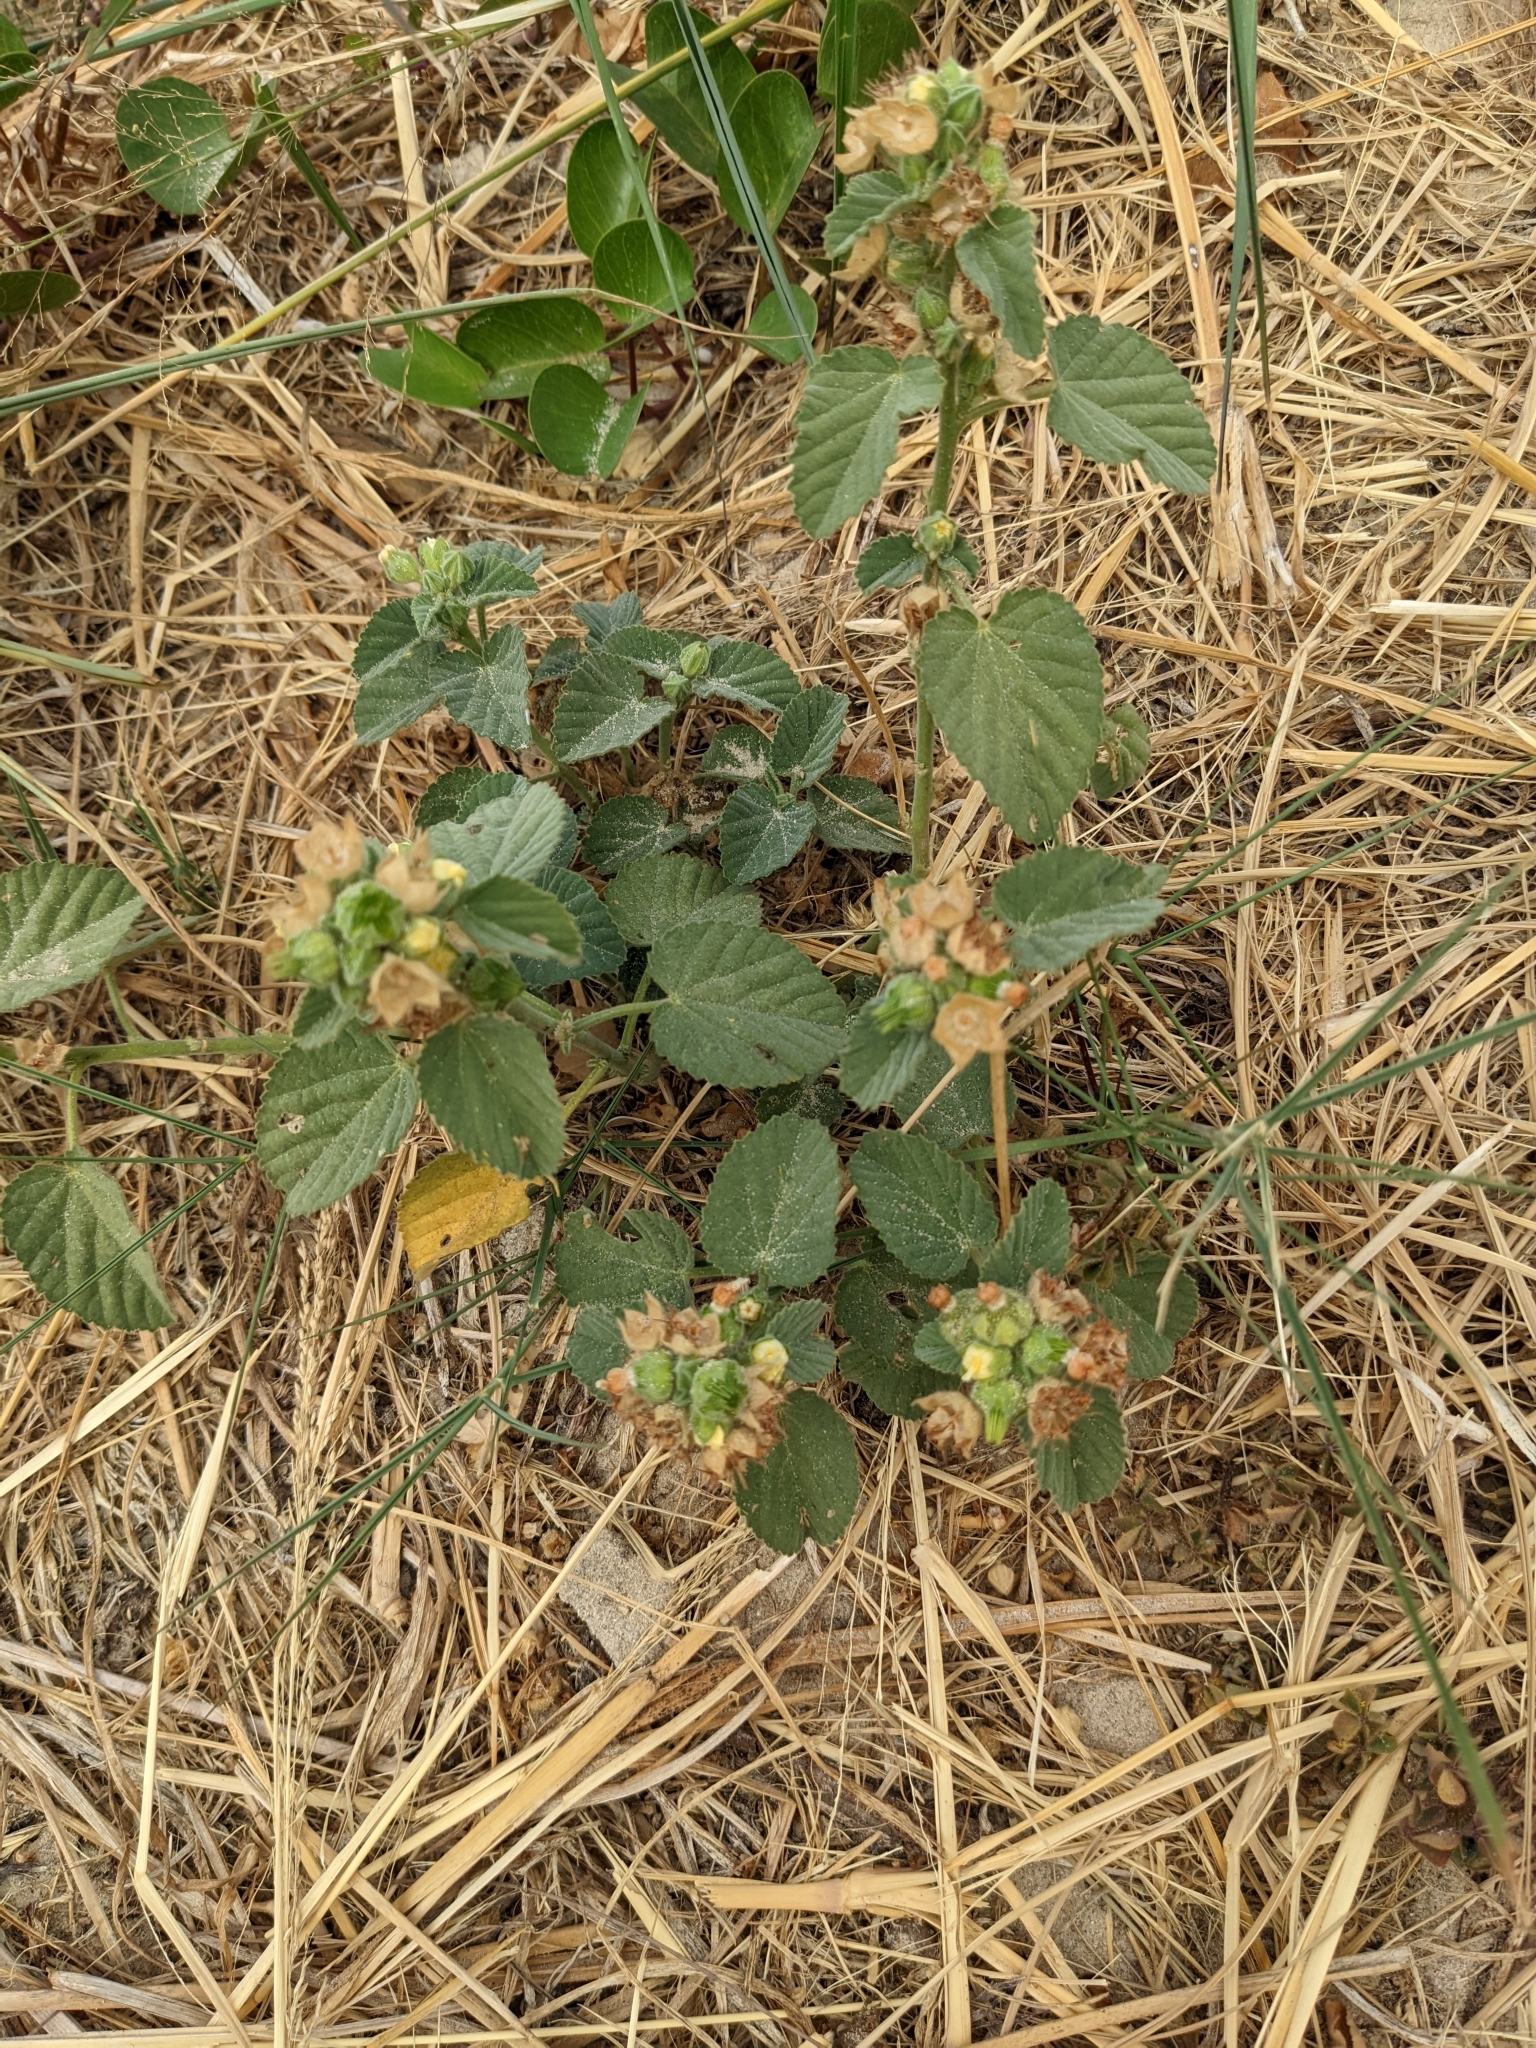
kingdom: Plantae
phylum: Tracheophyta
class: Magnoliopsida
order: Malvales
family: Malvaceae
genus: Waltheria
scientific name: Waltheria indica
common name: Leather-coat
